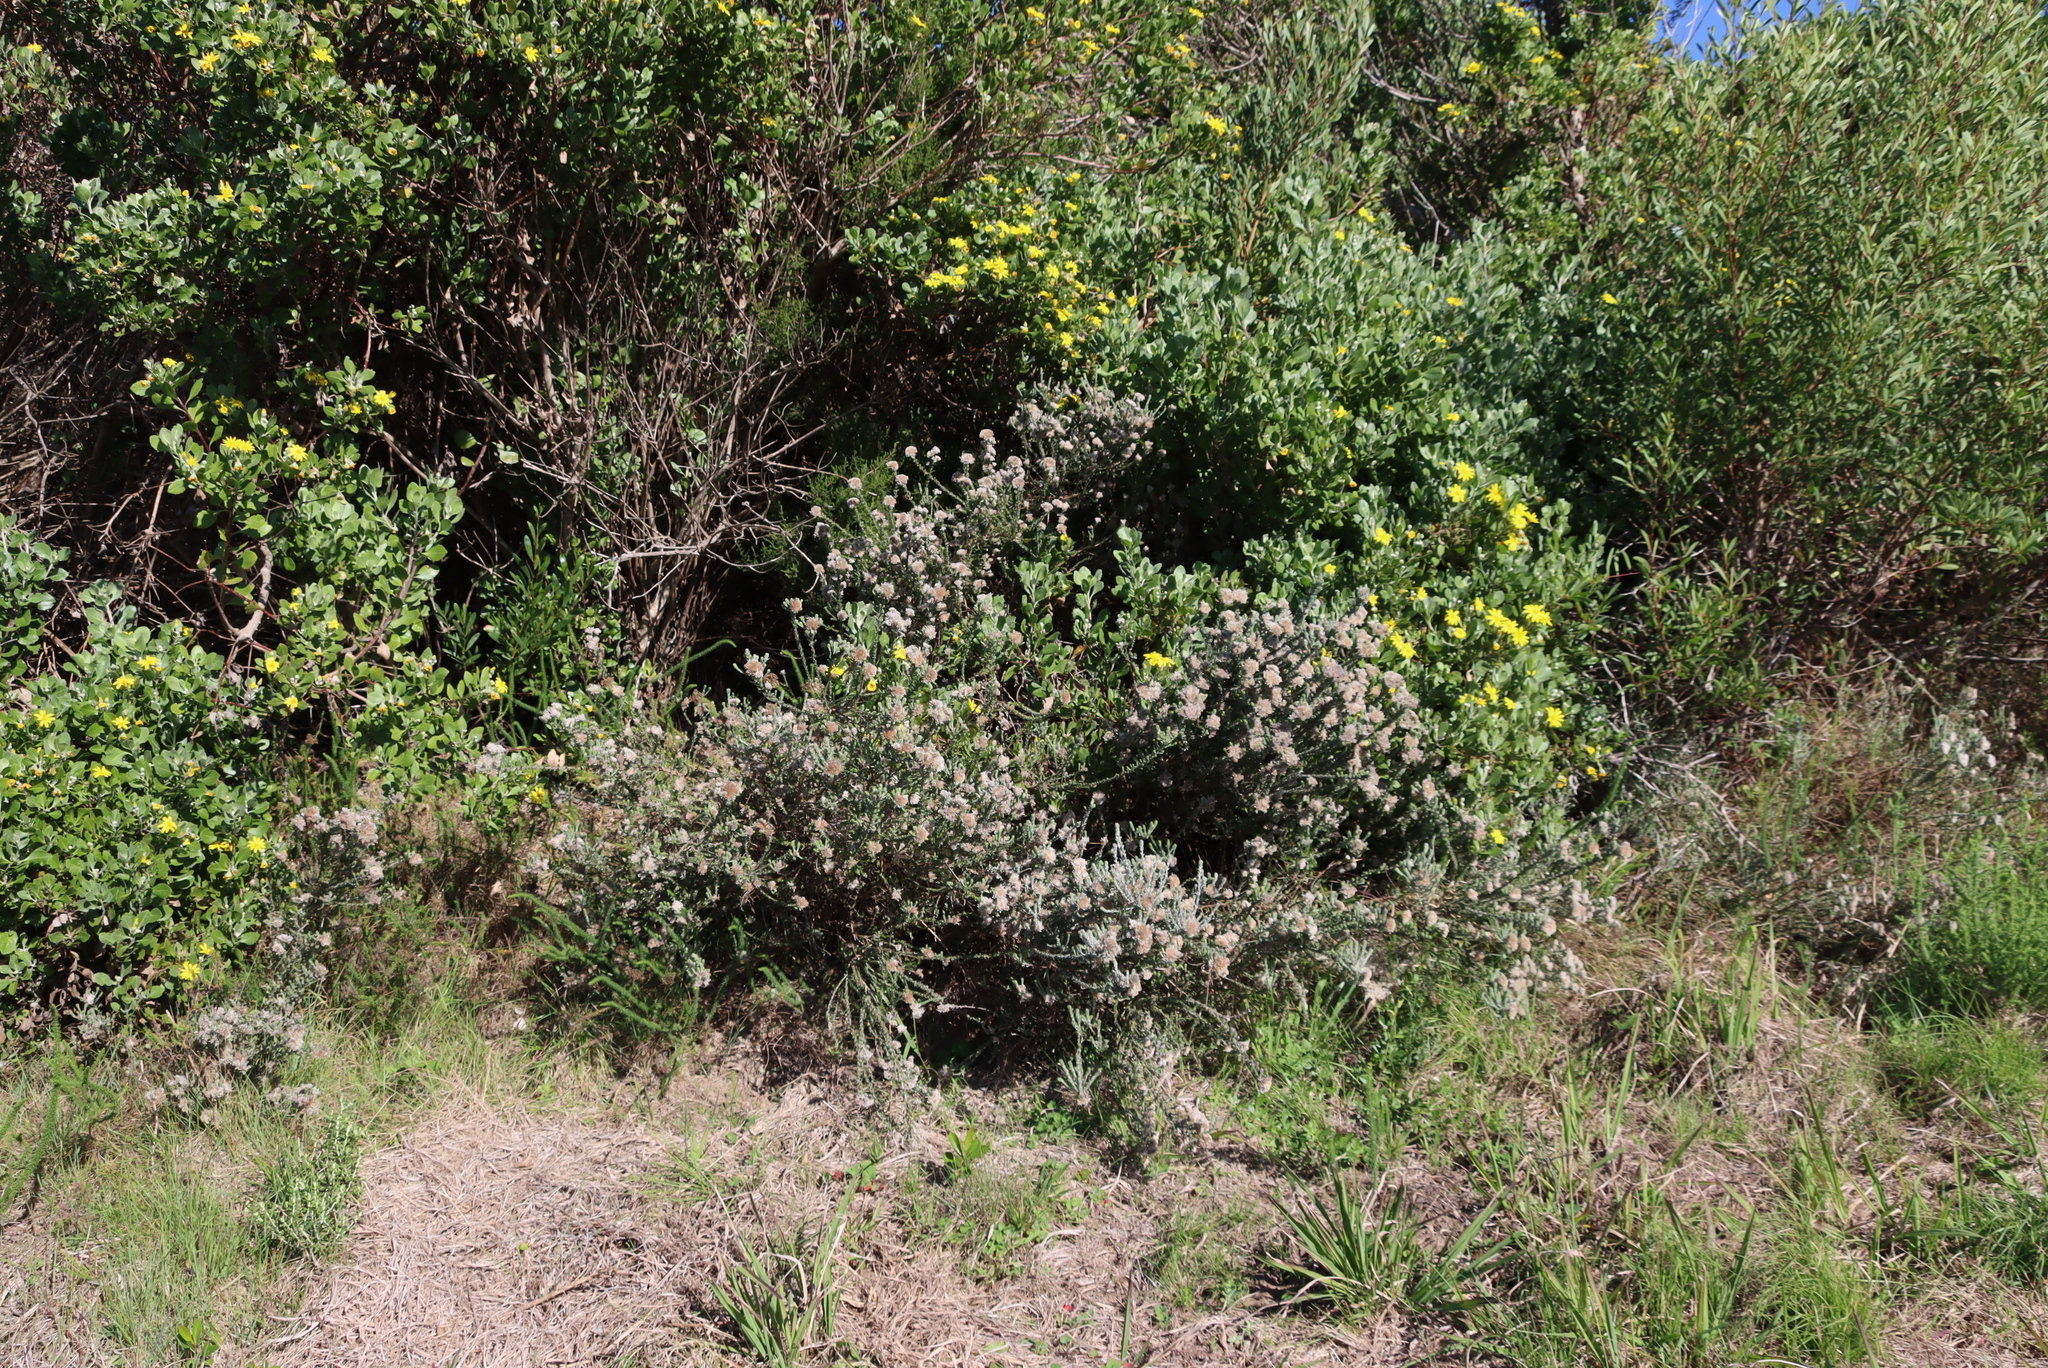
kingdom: Plantae
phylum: Tracheophyta
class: Magnoliopsida
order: Asterales
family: Asteraceae
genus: Metalasia
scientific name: Metalasia pungens
